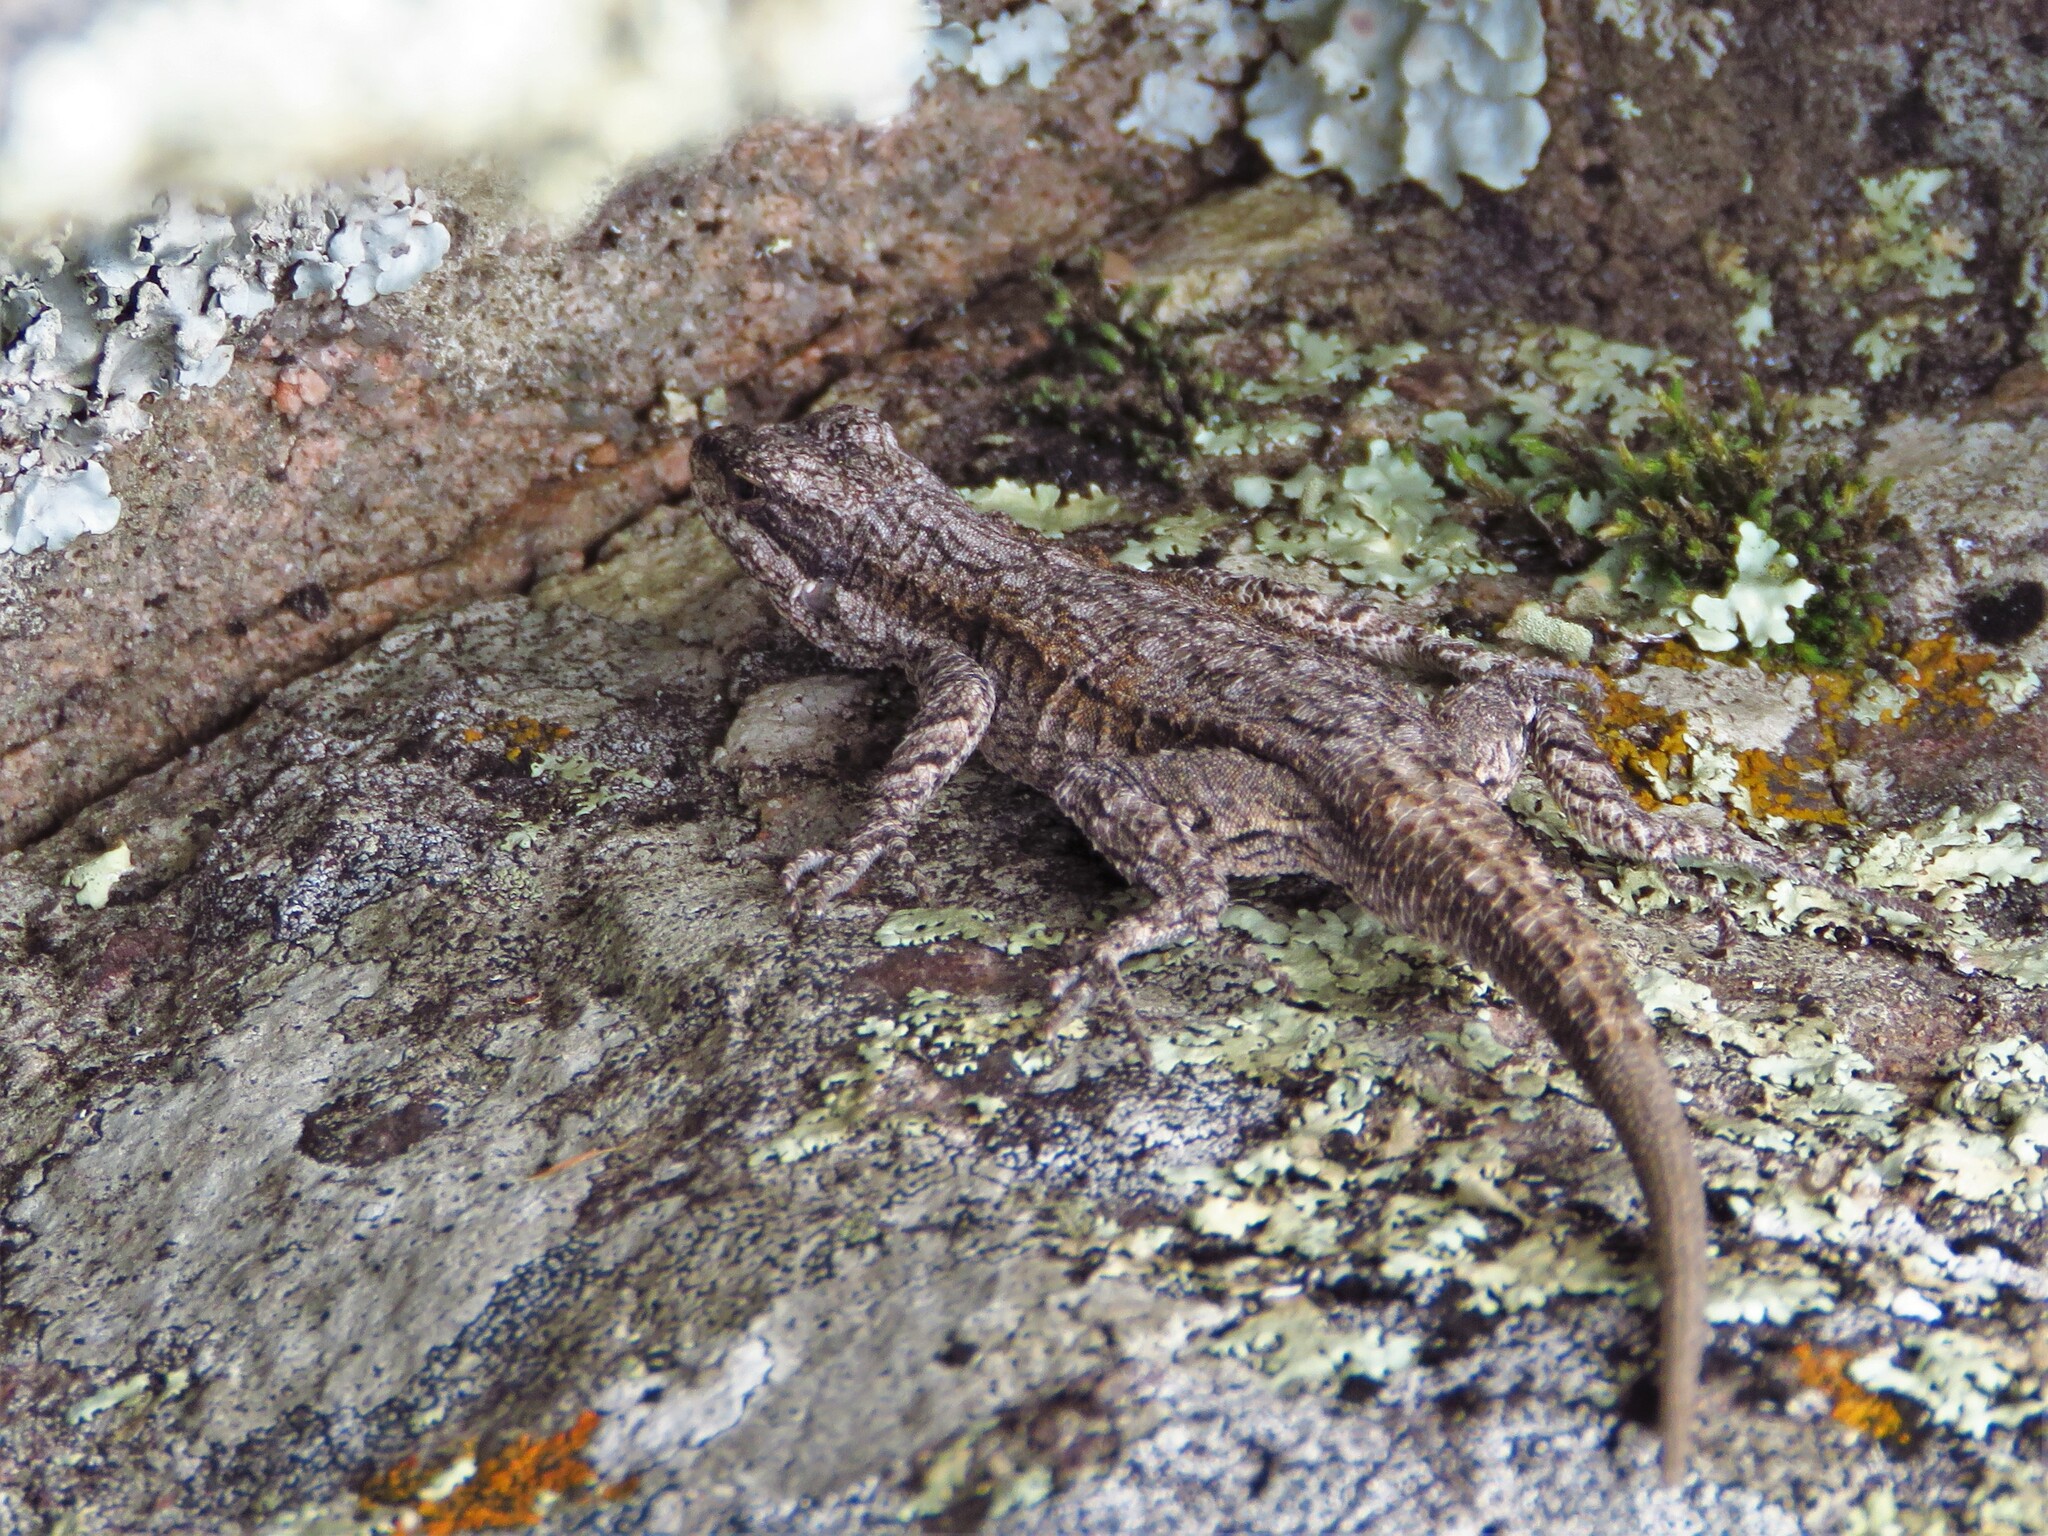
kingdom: Animalia
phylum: Chordata
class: Squamata
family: Phrynosomatidae
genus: Urosaurus
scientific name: Urosaurus ornatus
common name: Ornate tree lizard
